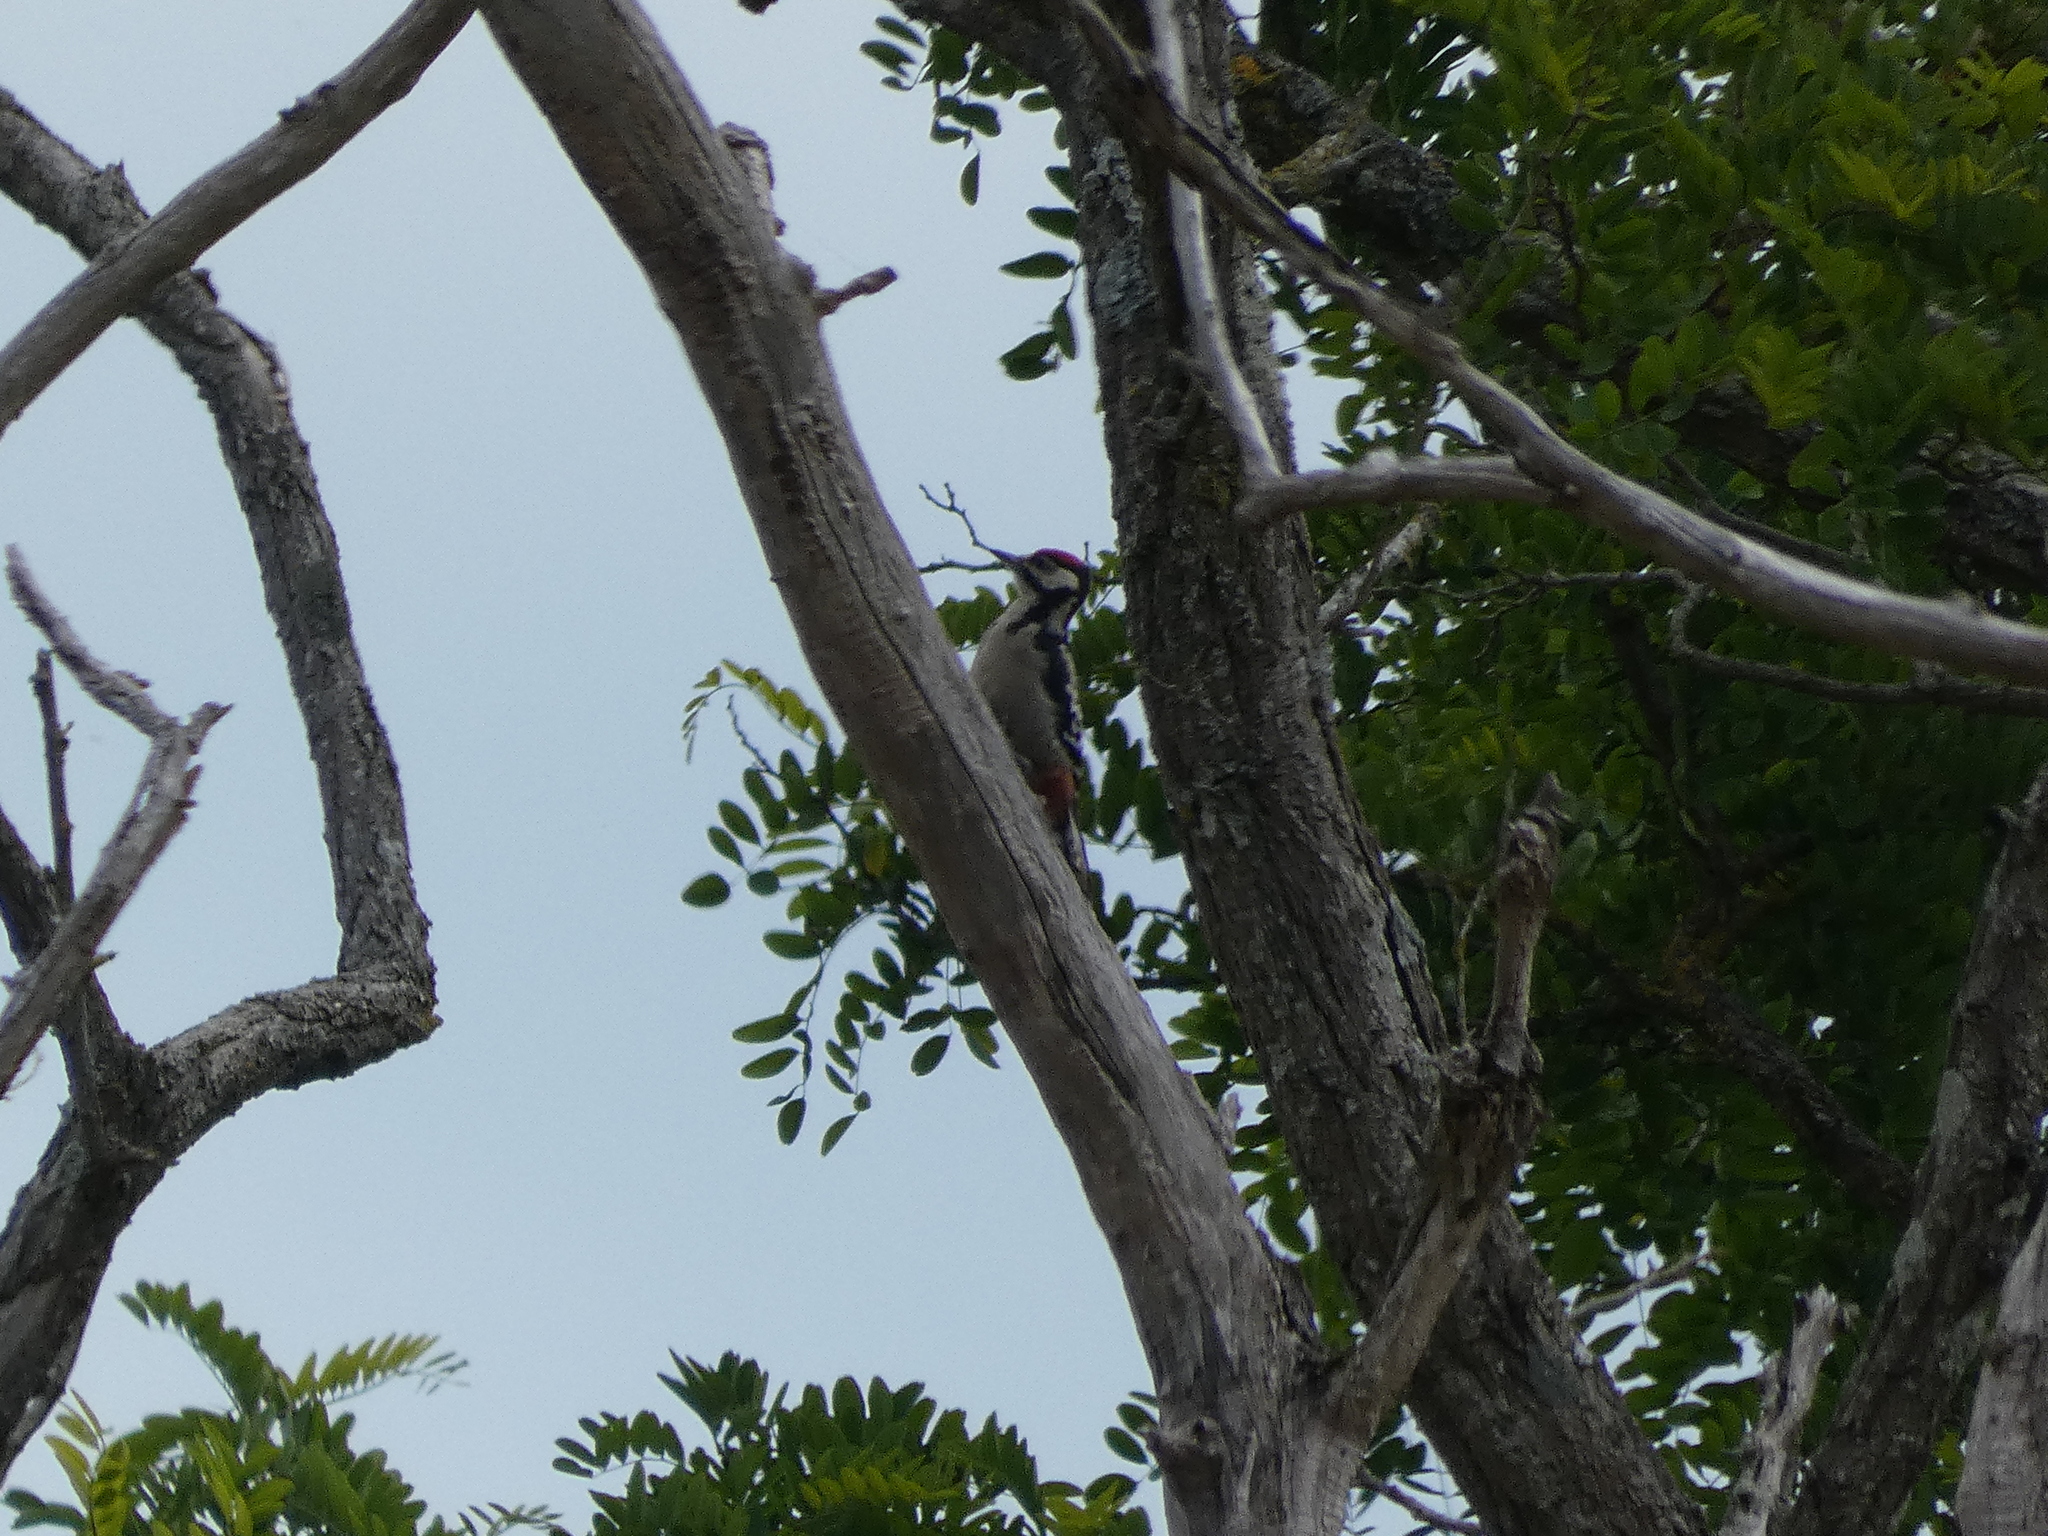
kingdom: Animalia
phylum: Chordata
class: Aves
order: Piciformes
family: Picidae
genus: Dendrocopos
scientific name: Dendrocopos major
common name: Great spotted woodpecker
